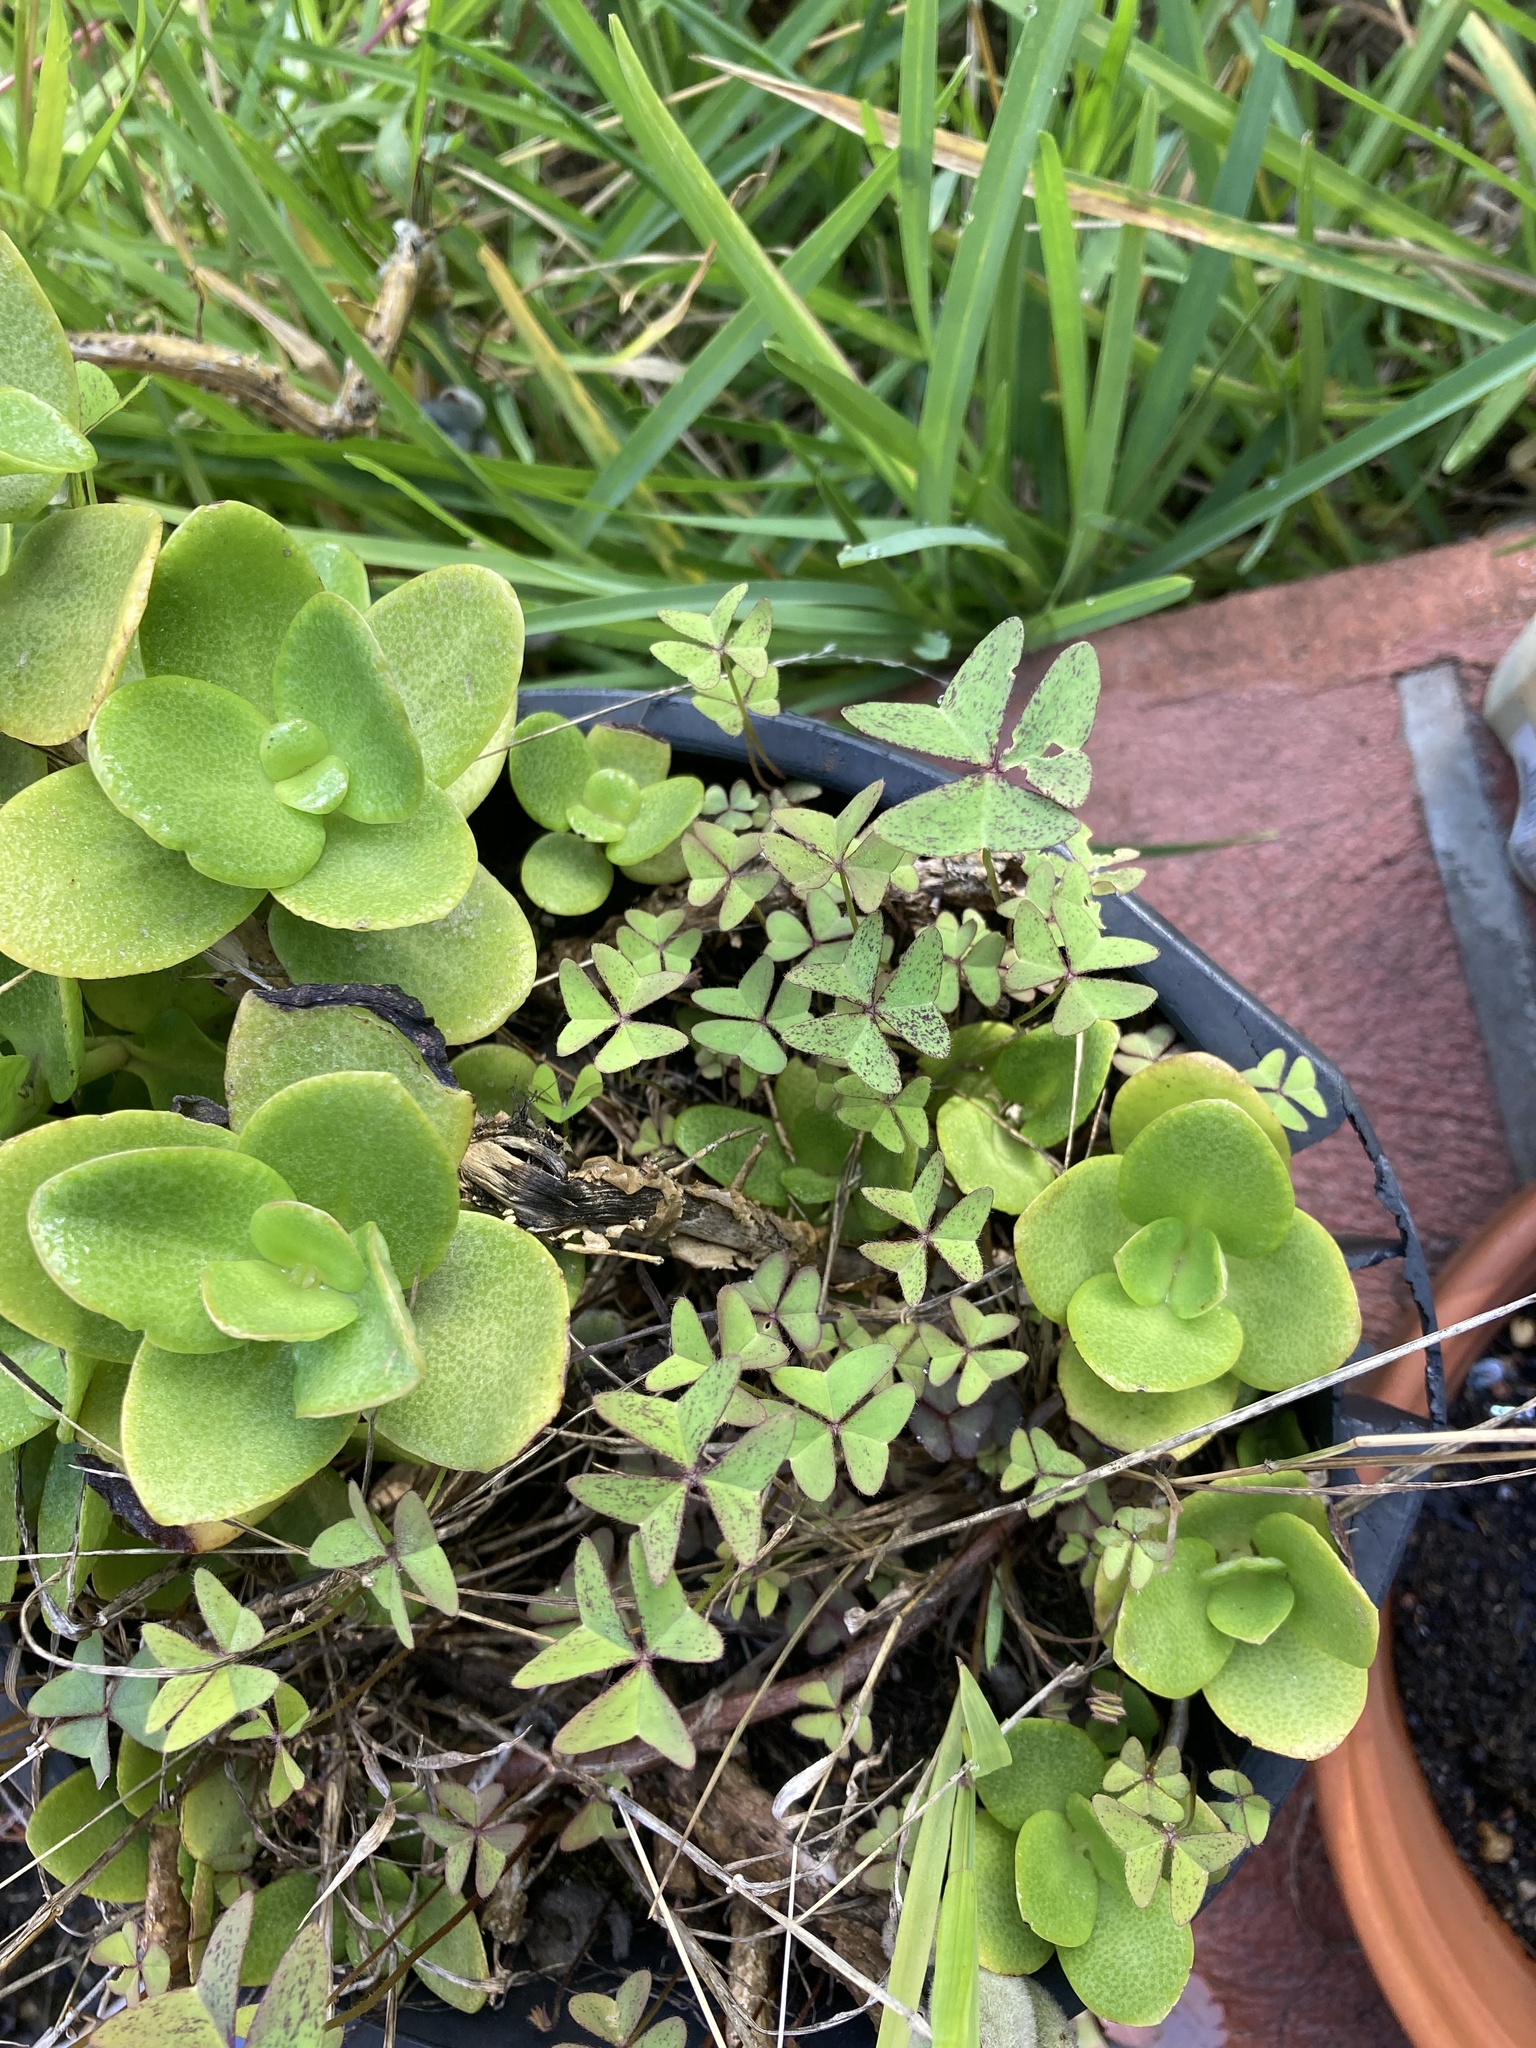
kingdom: Plantae
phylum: Tracheophyta
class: Magnoliopsida
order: Oxalidales
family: Oxalidaceae
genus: Oxalis
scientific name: Oxalis latifolia
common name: Garden pink-sorrel
